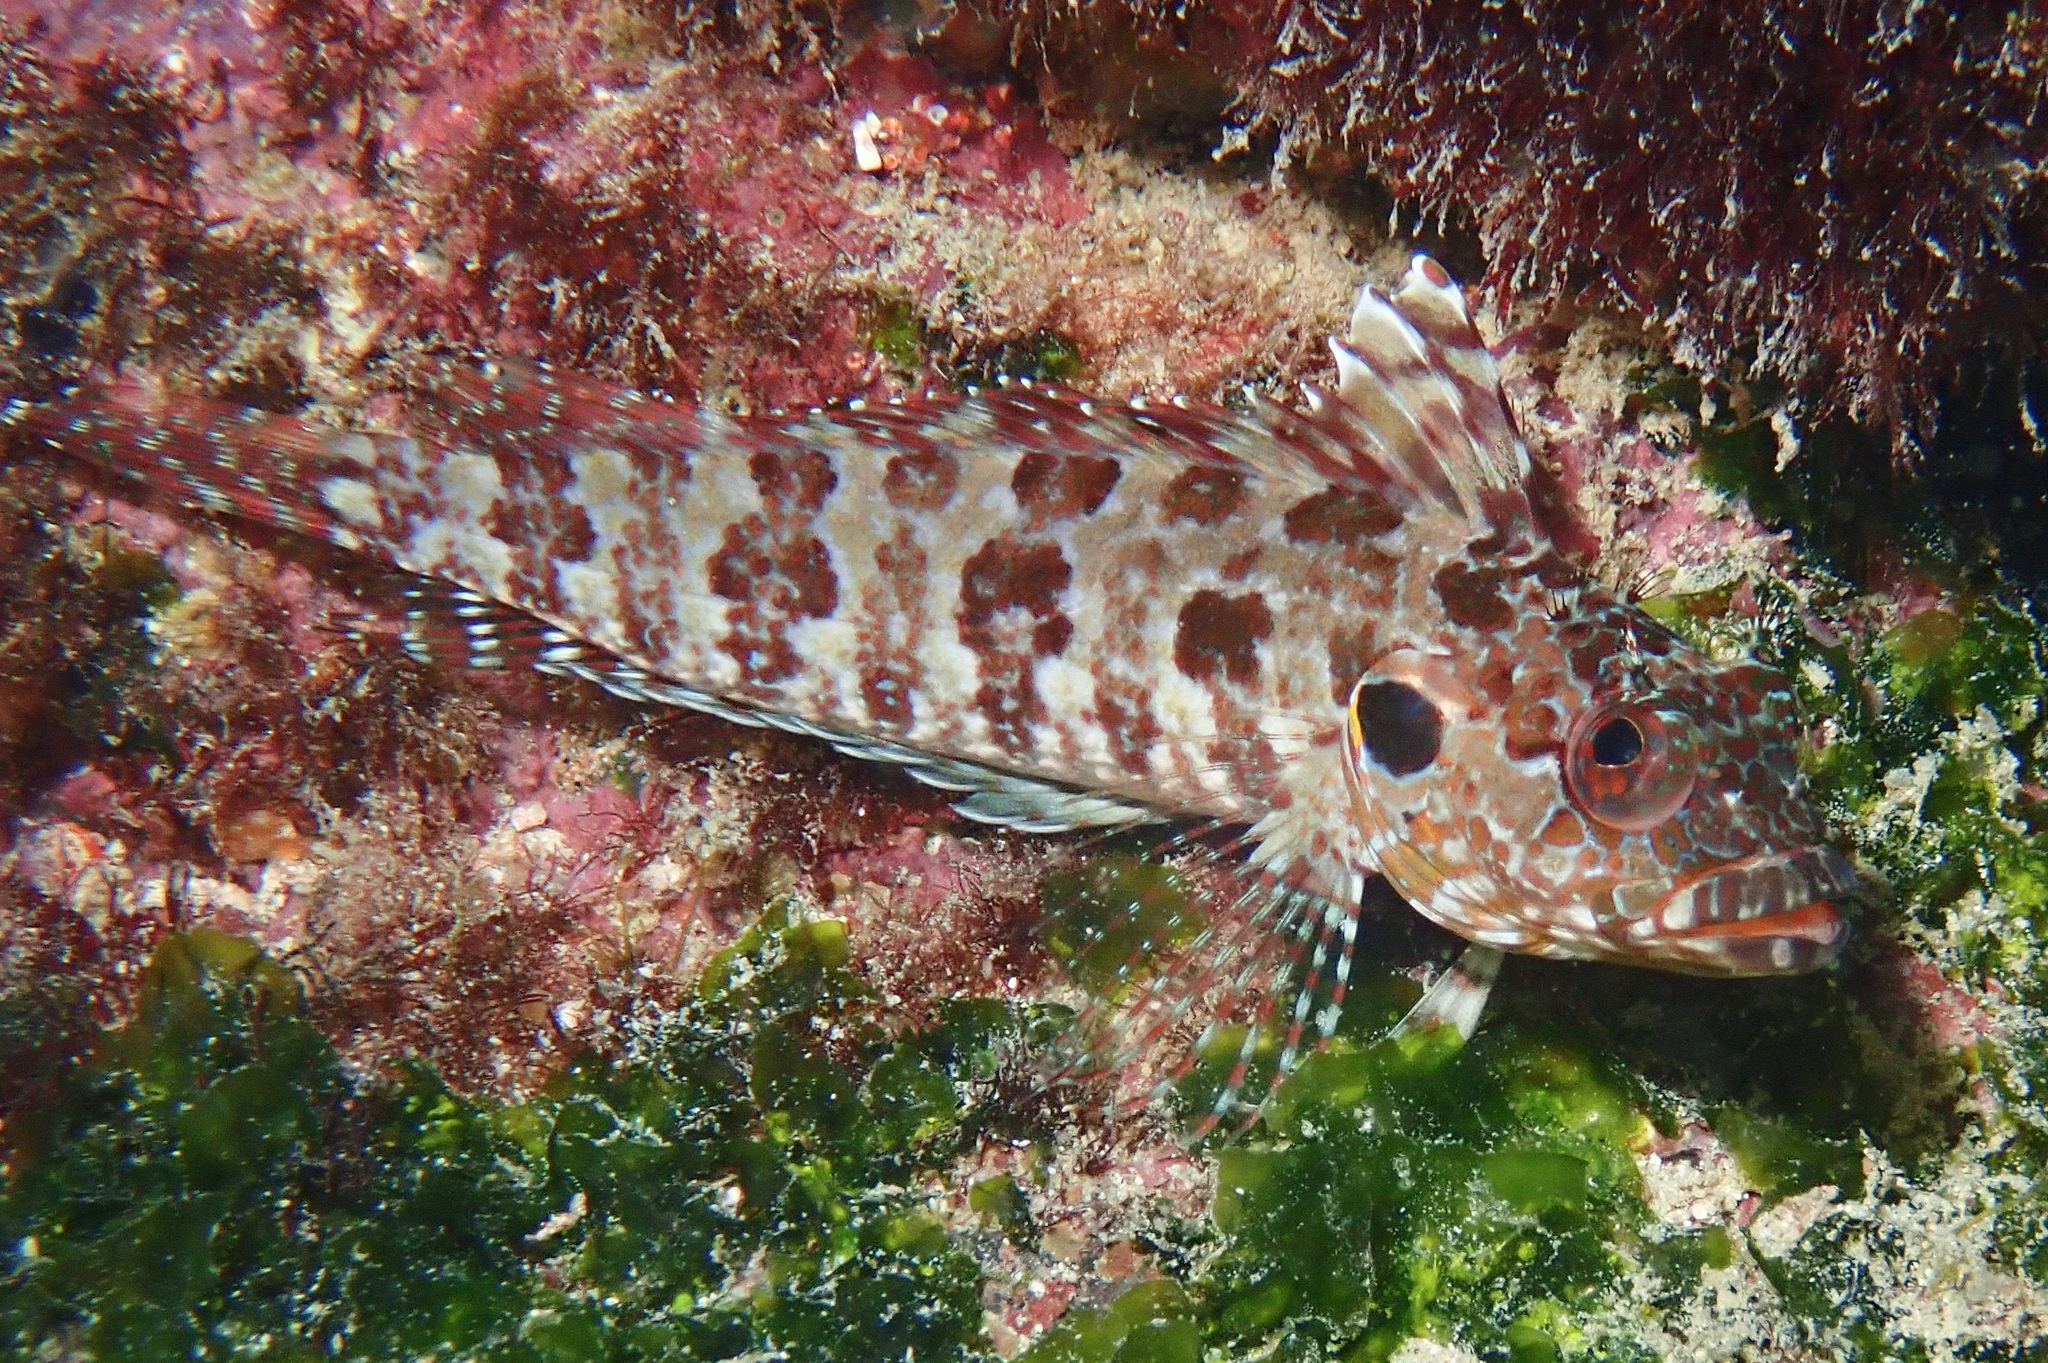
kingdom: Animalia
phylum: Chordata
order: Perciformes
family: Labrisomidae
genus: Gobioclinus
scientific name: Gobioclinus dendriticus
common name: Bravo clinid
